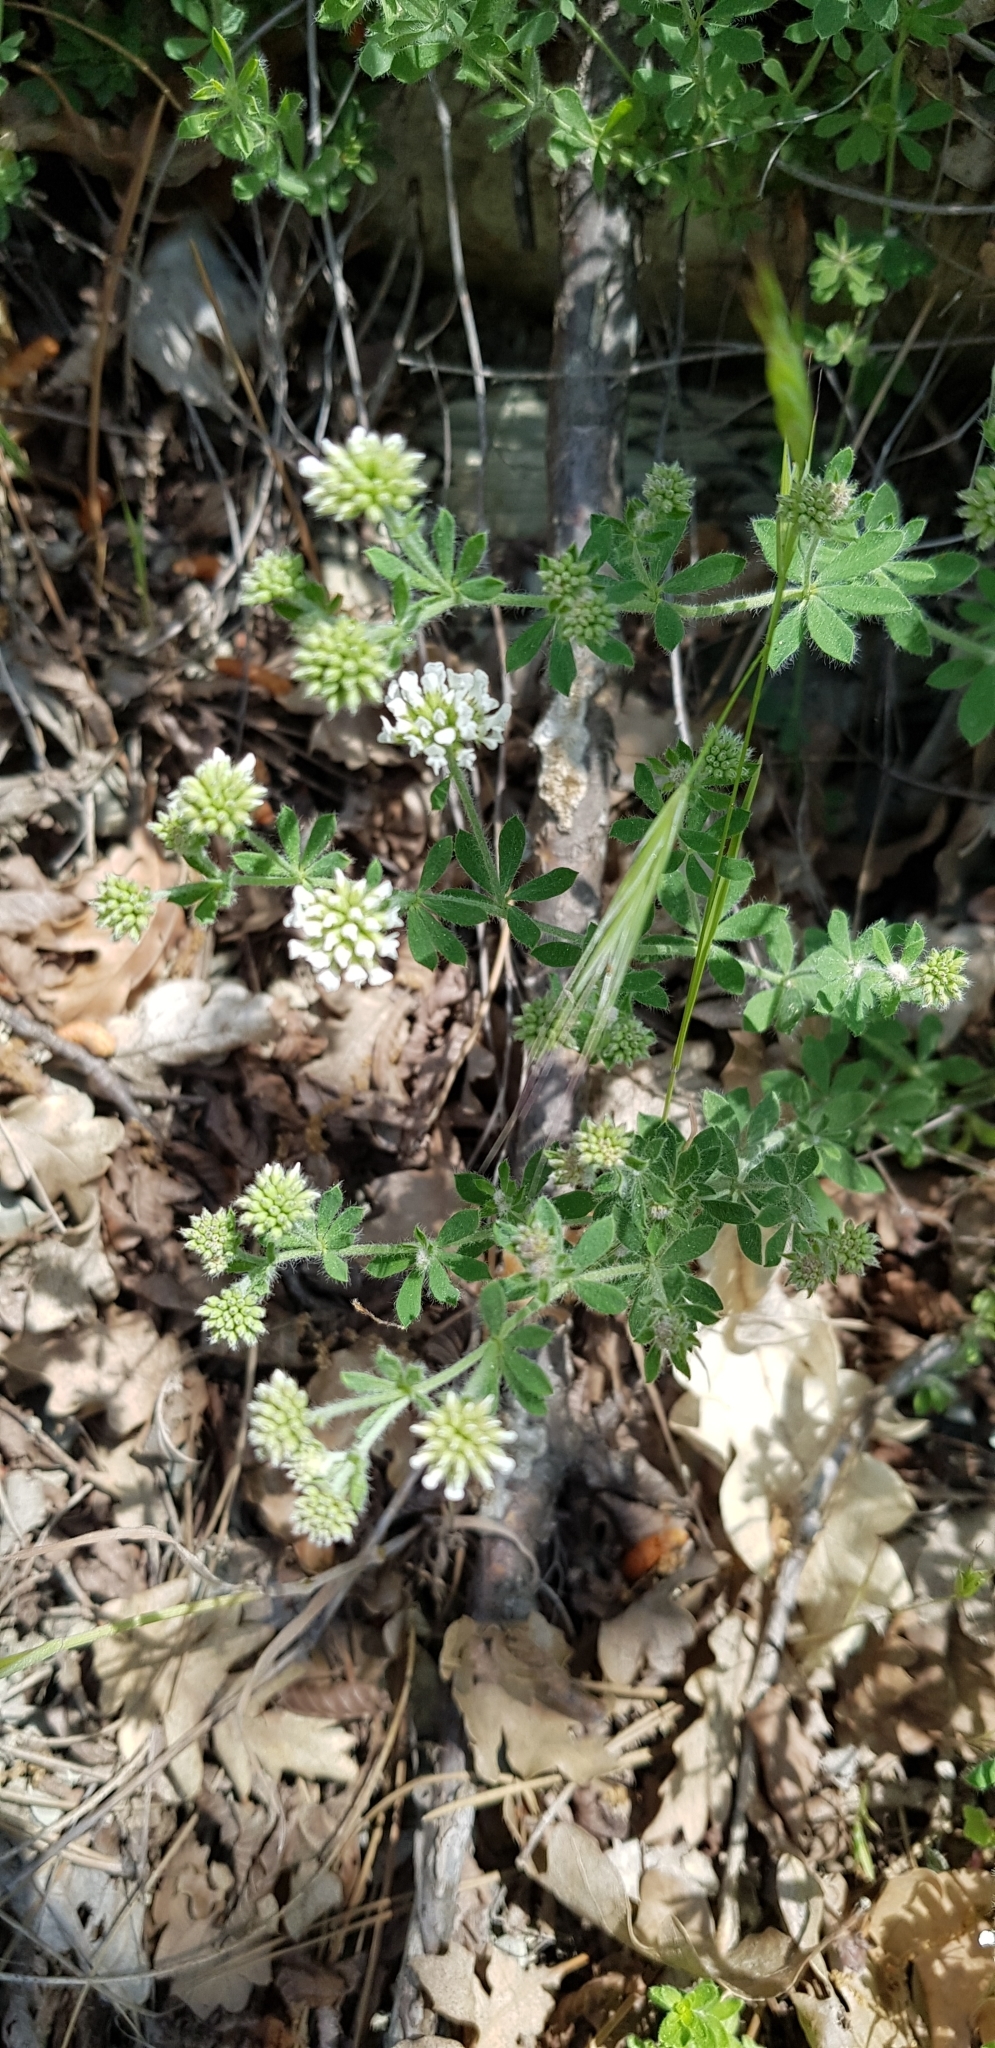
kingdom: Plantae
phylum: Tracheophyta
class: Magnoliopsida
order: Fabales
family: Fabaceae
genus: Lotus
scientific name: Lotus herbaceus
